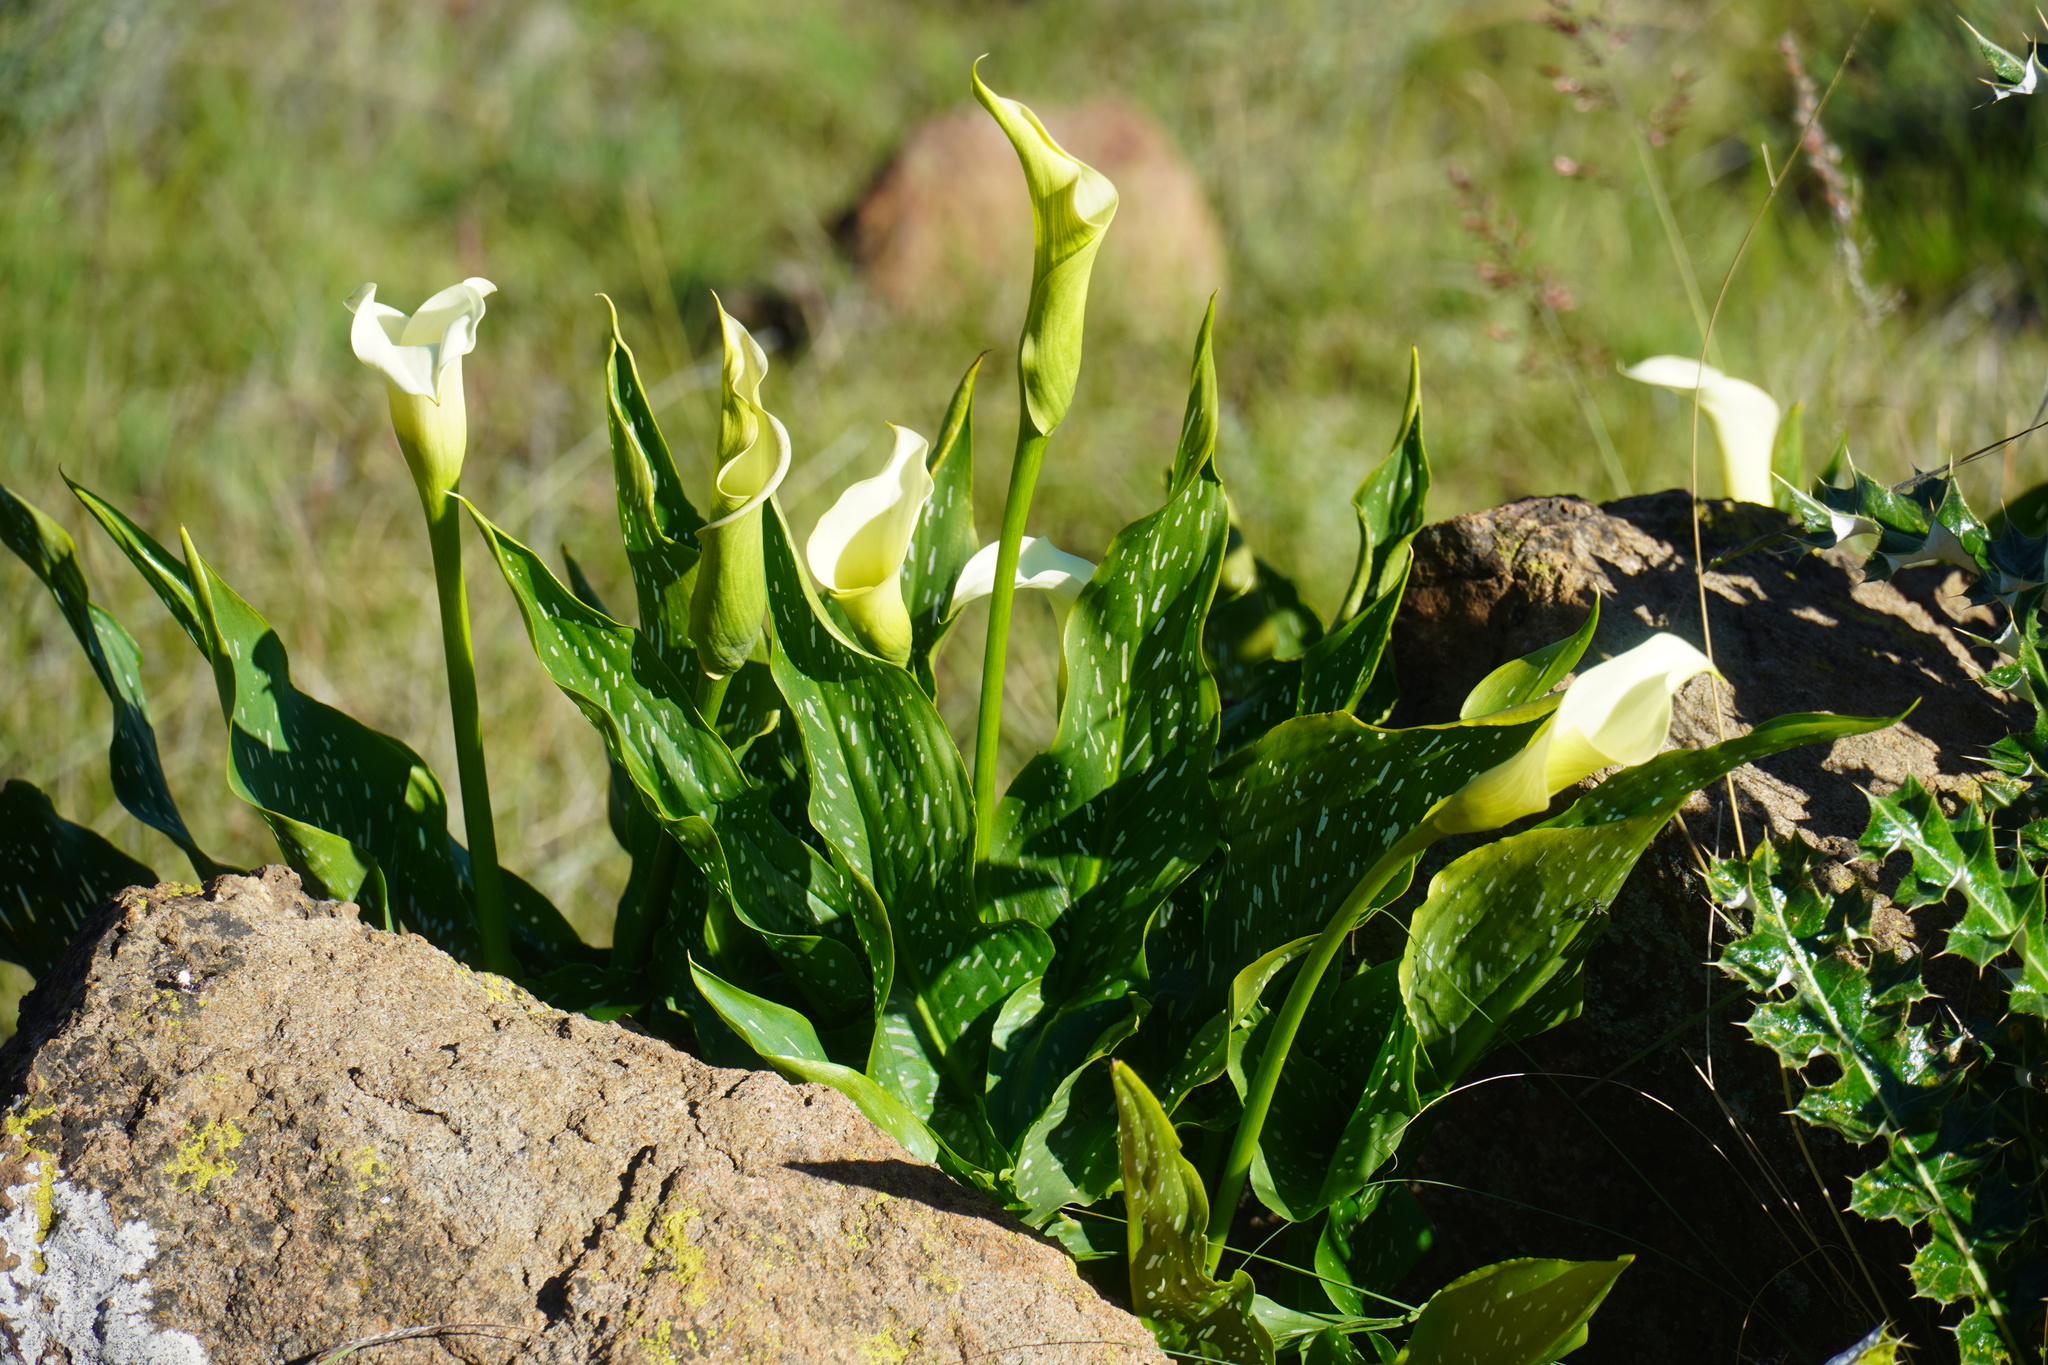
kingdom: Plantae
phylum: Tracheophyta
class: Liliopsida
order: Alismatales
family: Araceae
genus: Zantedeschia
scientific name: Zantedeschia albomaculata
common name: Spotted calla lily
